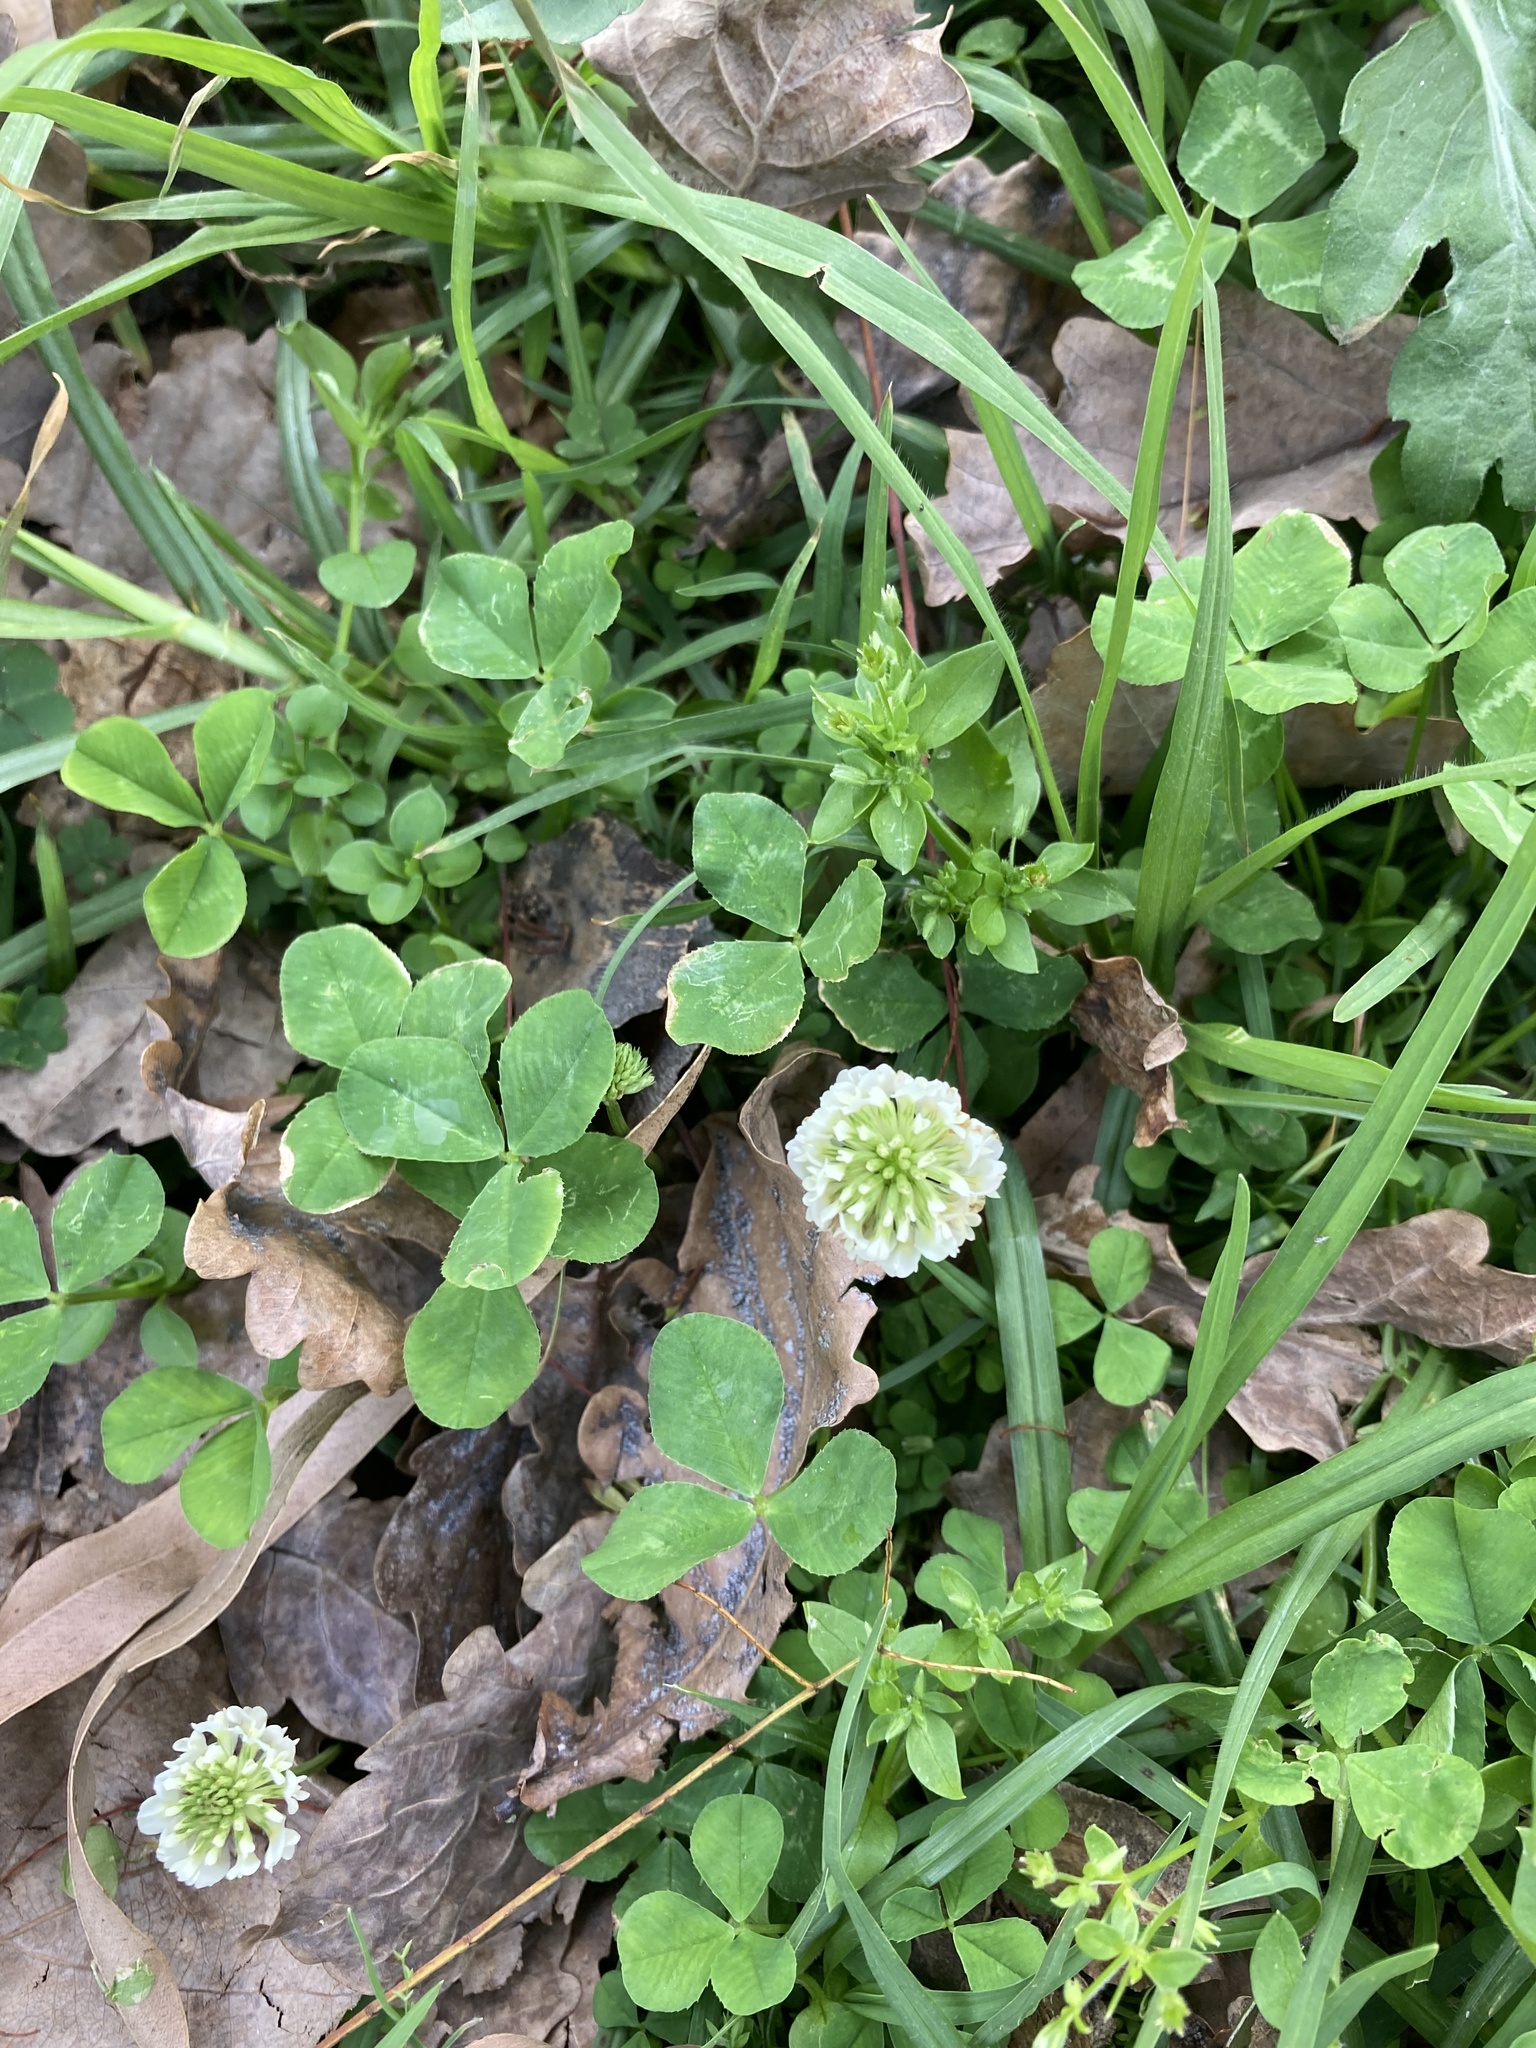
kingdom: Plantae
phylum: Tracheophyta
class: Magnoliopsida
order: Fabales
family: Fabaceae
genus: Trifolium
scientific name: Trifolium repens
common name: White clover
